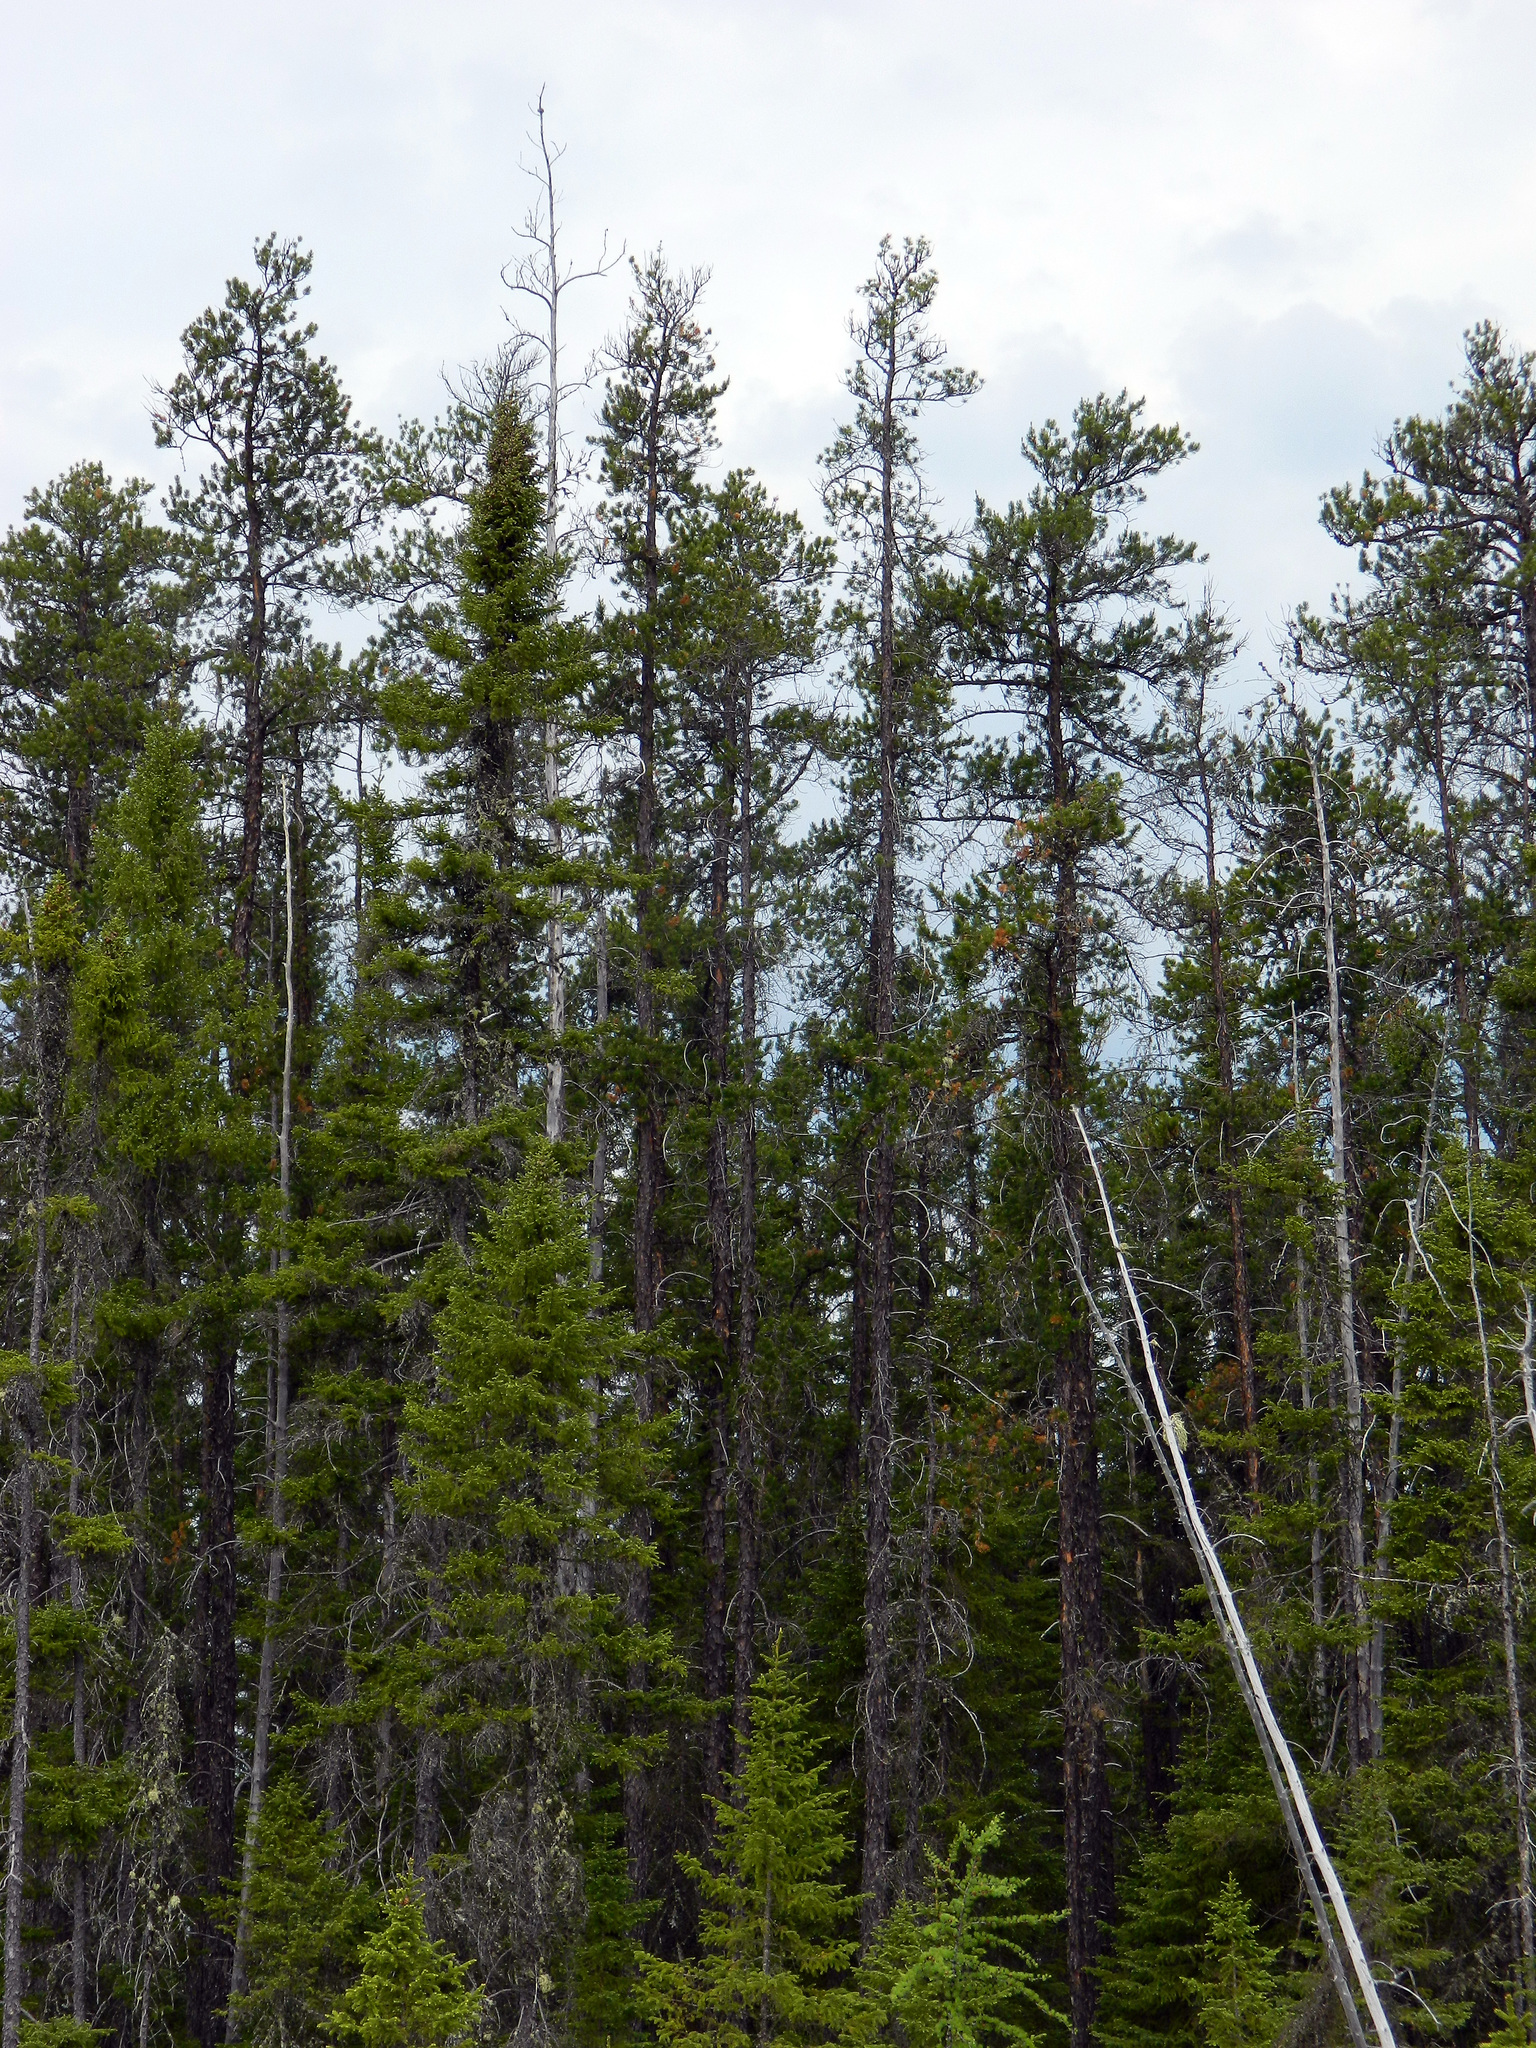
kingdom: Plantae
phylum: Tracheophyta
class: Pinopsida
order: Pinales
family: Pinaceae
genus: Pinus
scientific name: Pinus banksiana
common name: Jack pine
